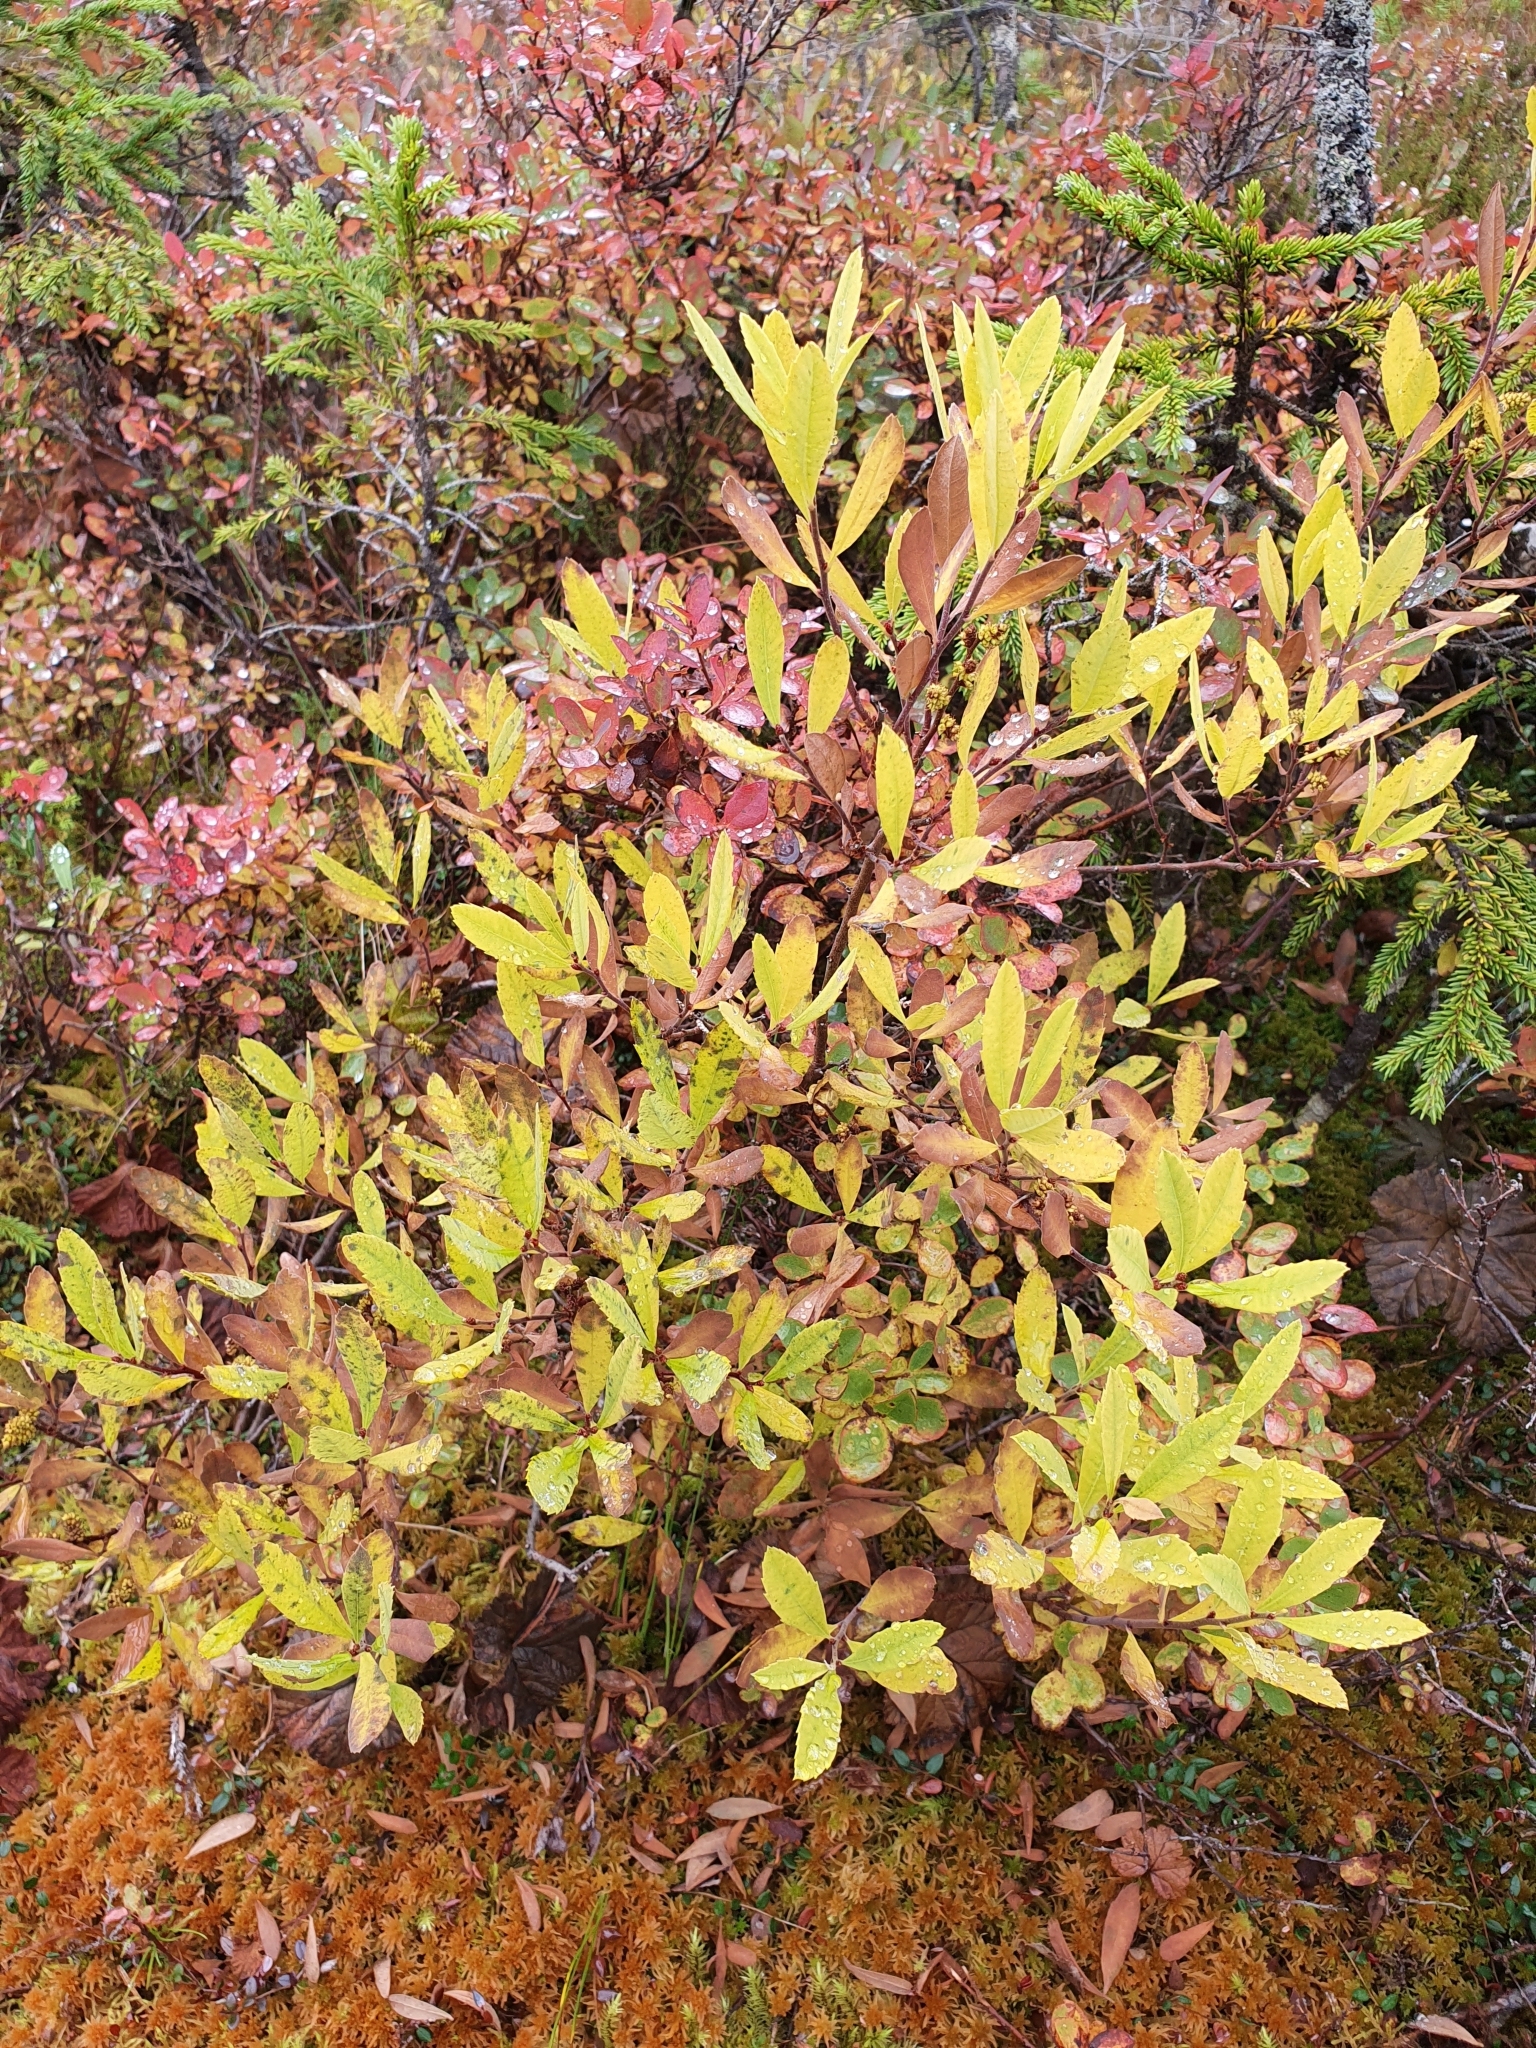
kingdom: Plantae
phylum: Tracheophyta
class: Magnoliopsida
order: Fagales
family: Myricaceae
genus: Myrica
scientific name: Myrica gale
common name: Sweet gale
